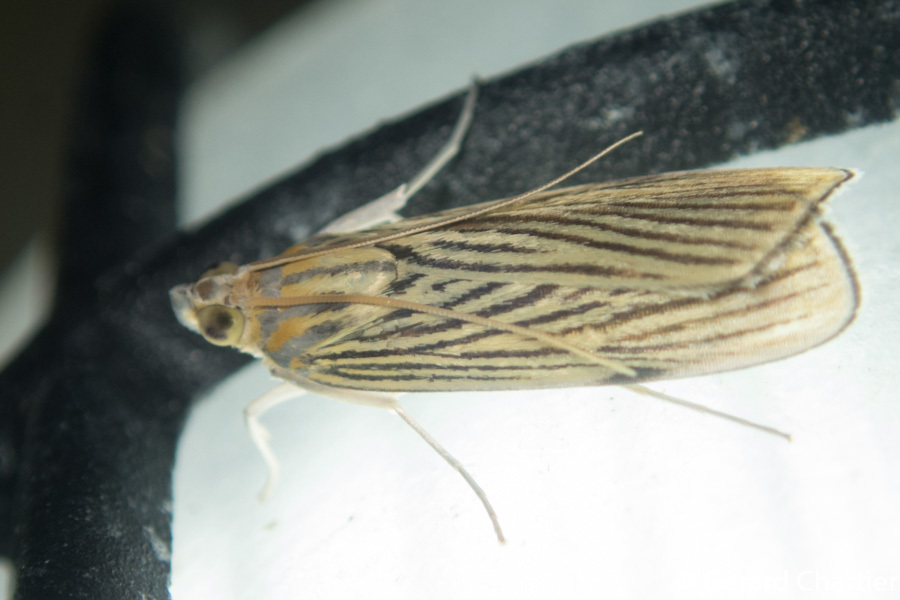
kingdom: Animalia
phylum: Arthropoda
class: Insecta
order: Lepidoptera
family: Crambidae
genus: Tyspanodes
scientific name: Tyspanodes linealis
